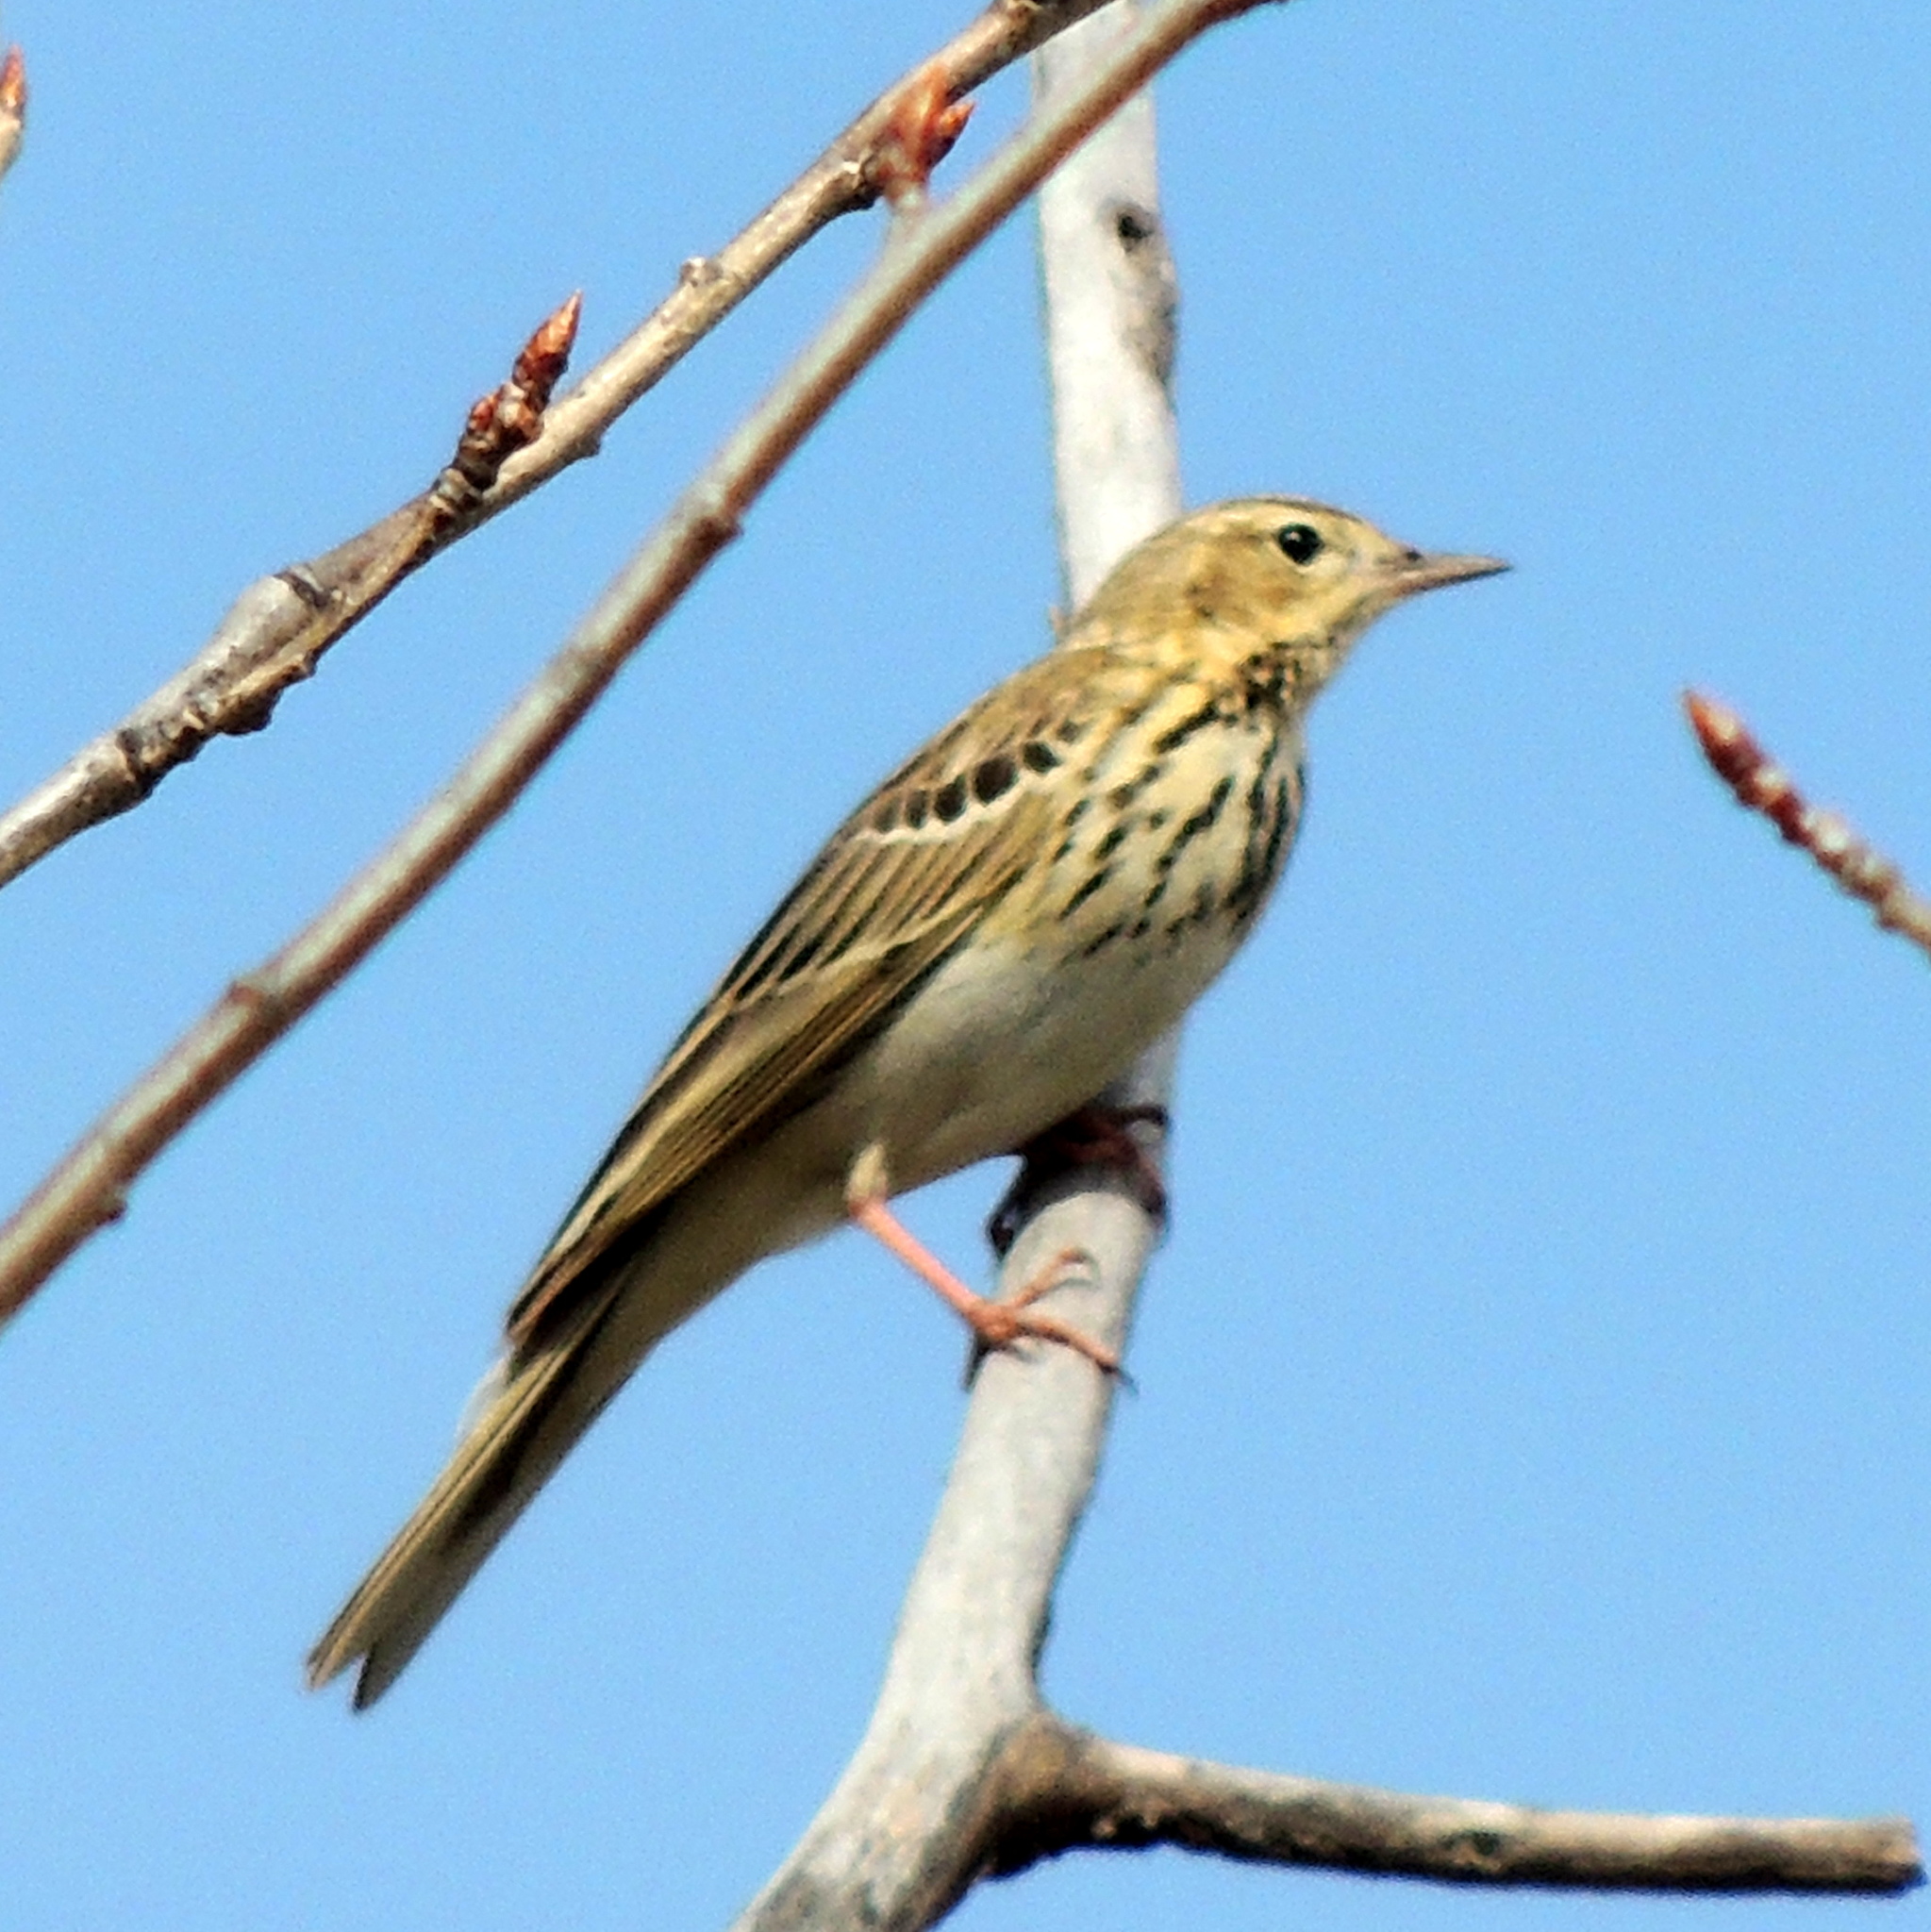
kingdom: Animalia
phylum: Chordata
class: Aves
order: Passeriformes
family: Motacillidae
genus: Anthus
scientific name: Anthus trivialis
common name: Tree pipit
